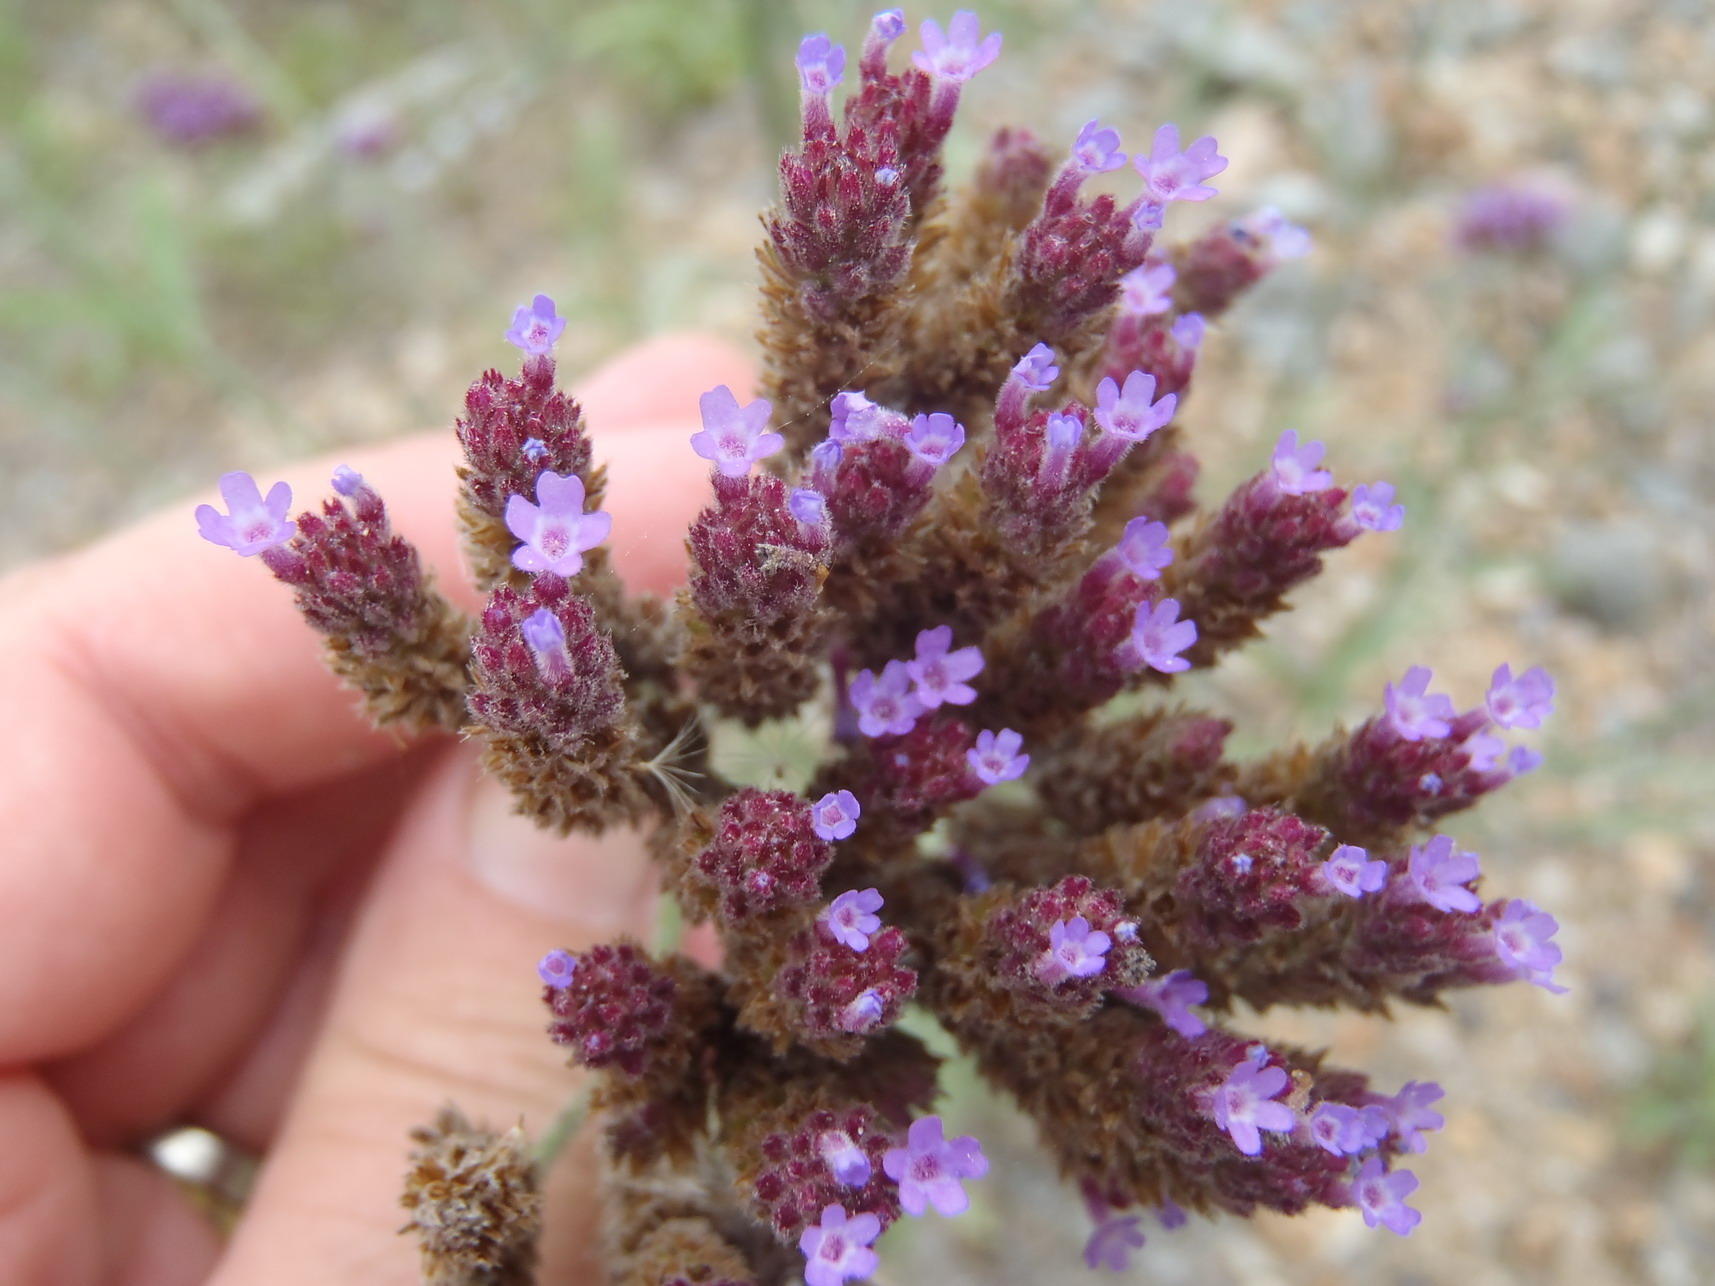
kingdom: Plantae
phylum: Tracheophyta
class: Magnoliopsida
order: Lamiales
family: Verbenaceae
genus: Verbena
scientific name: Verbena bonariensis
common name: Purpletop vervain
